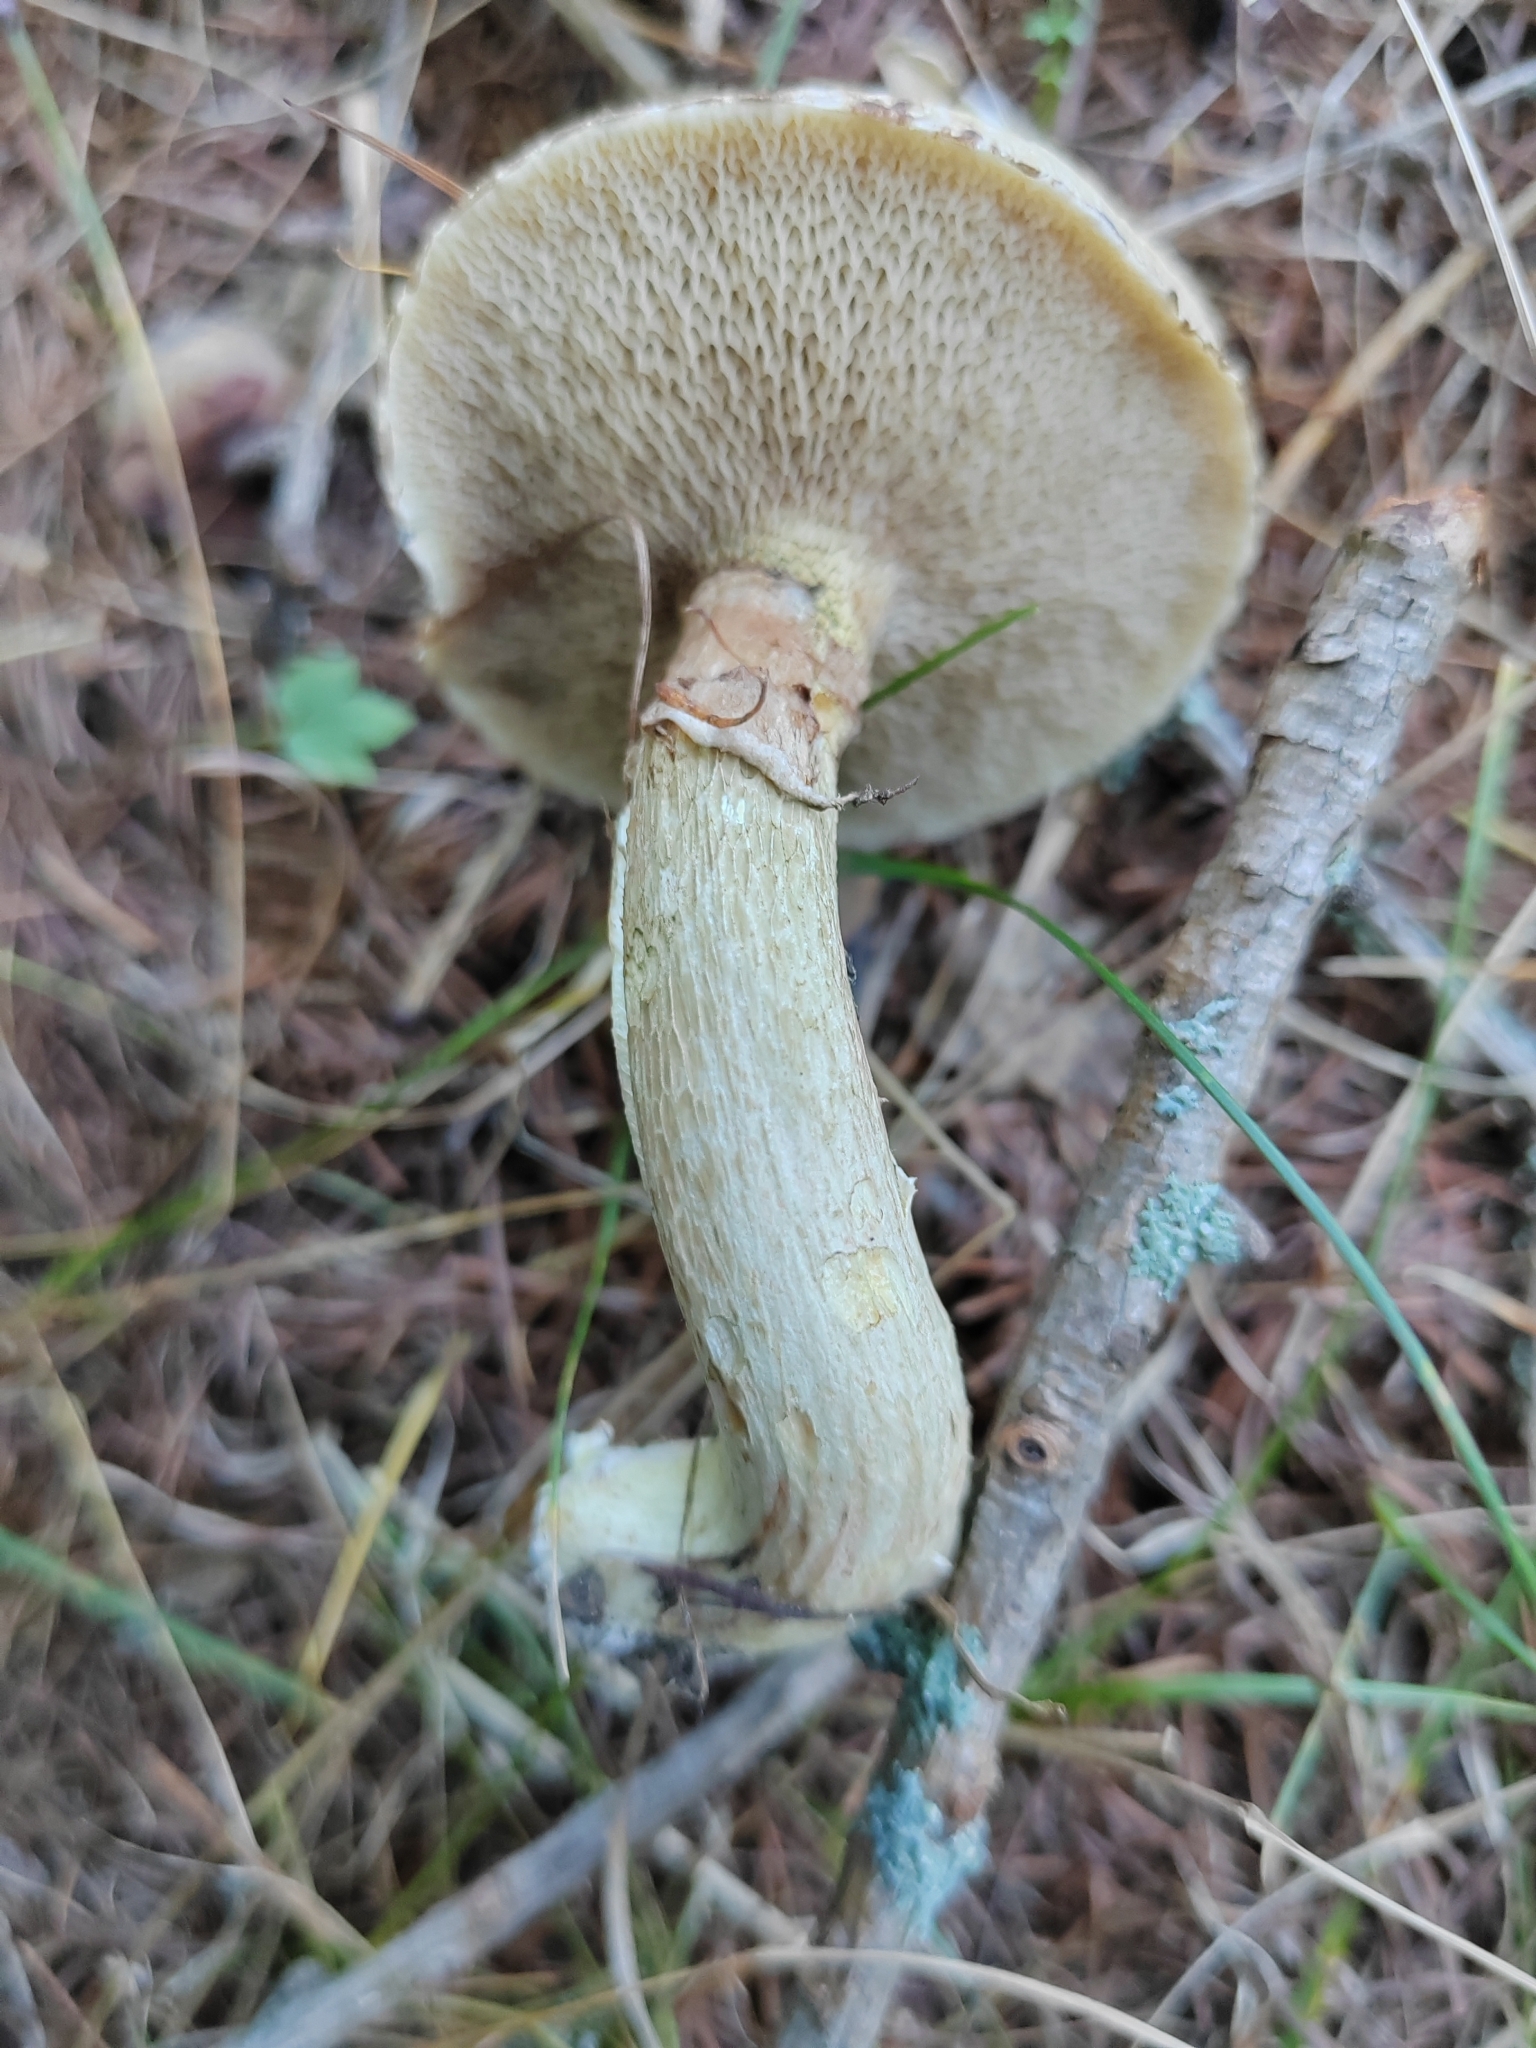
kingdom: Fungi
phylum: Basidiomycota
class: Agaricomycetes
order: Boletales
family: Suillaceae
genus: Suillus
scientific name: Suillus viscidus
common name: Sticky bolete
